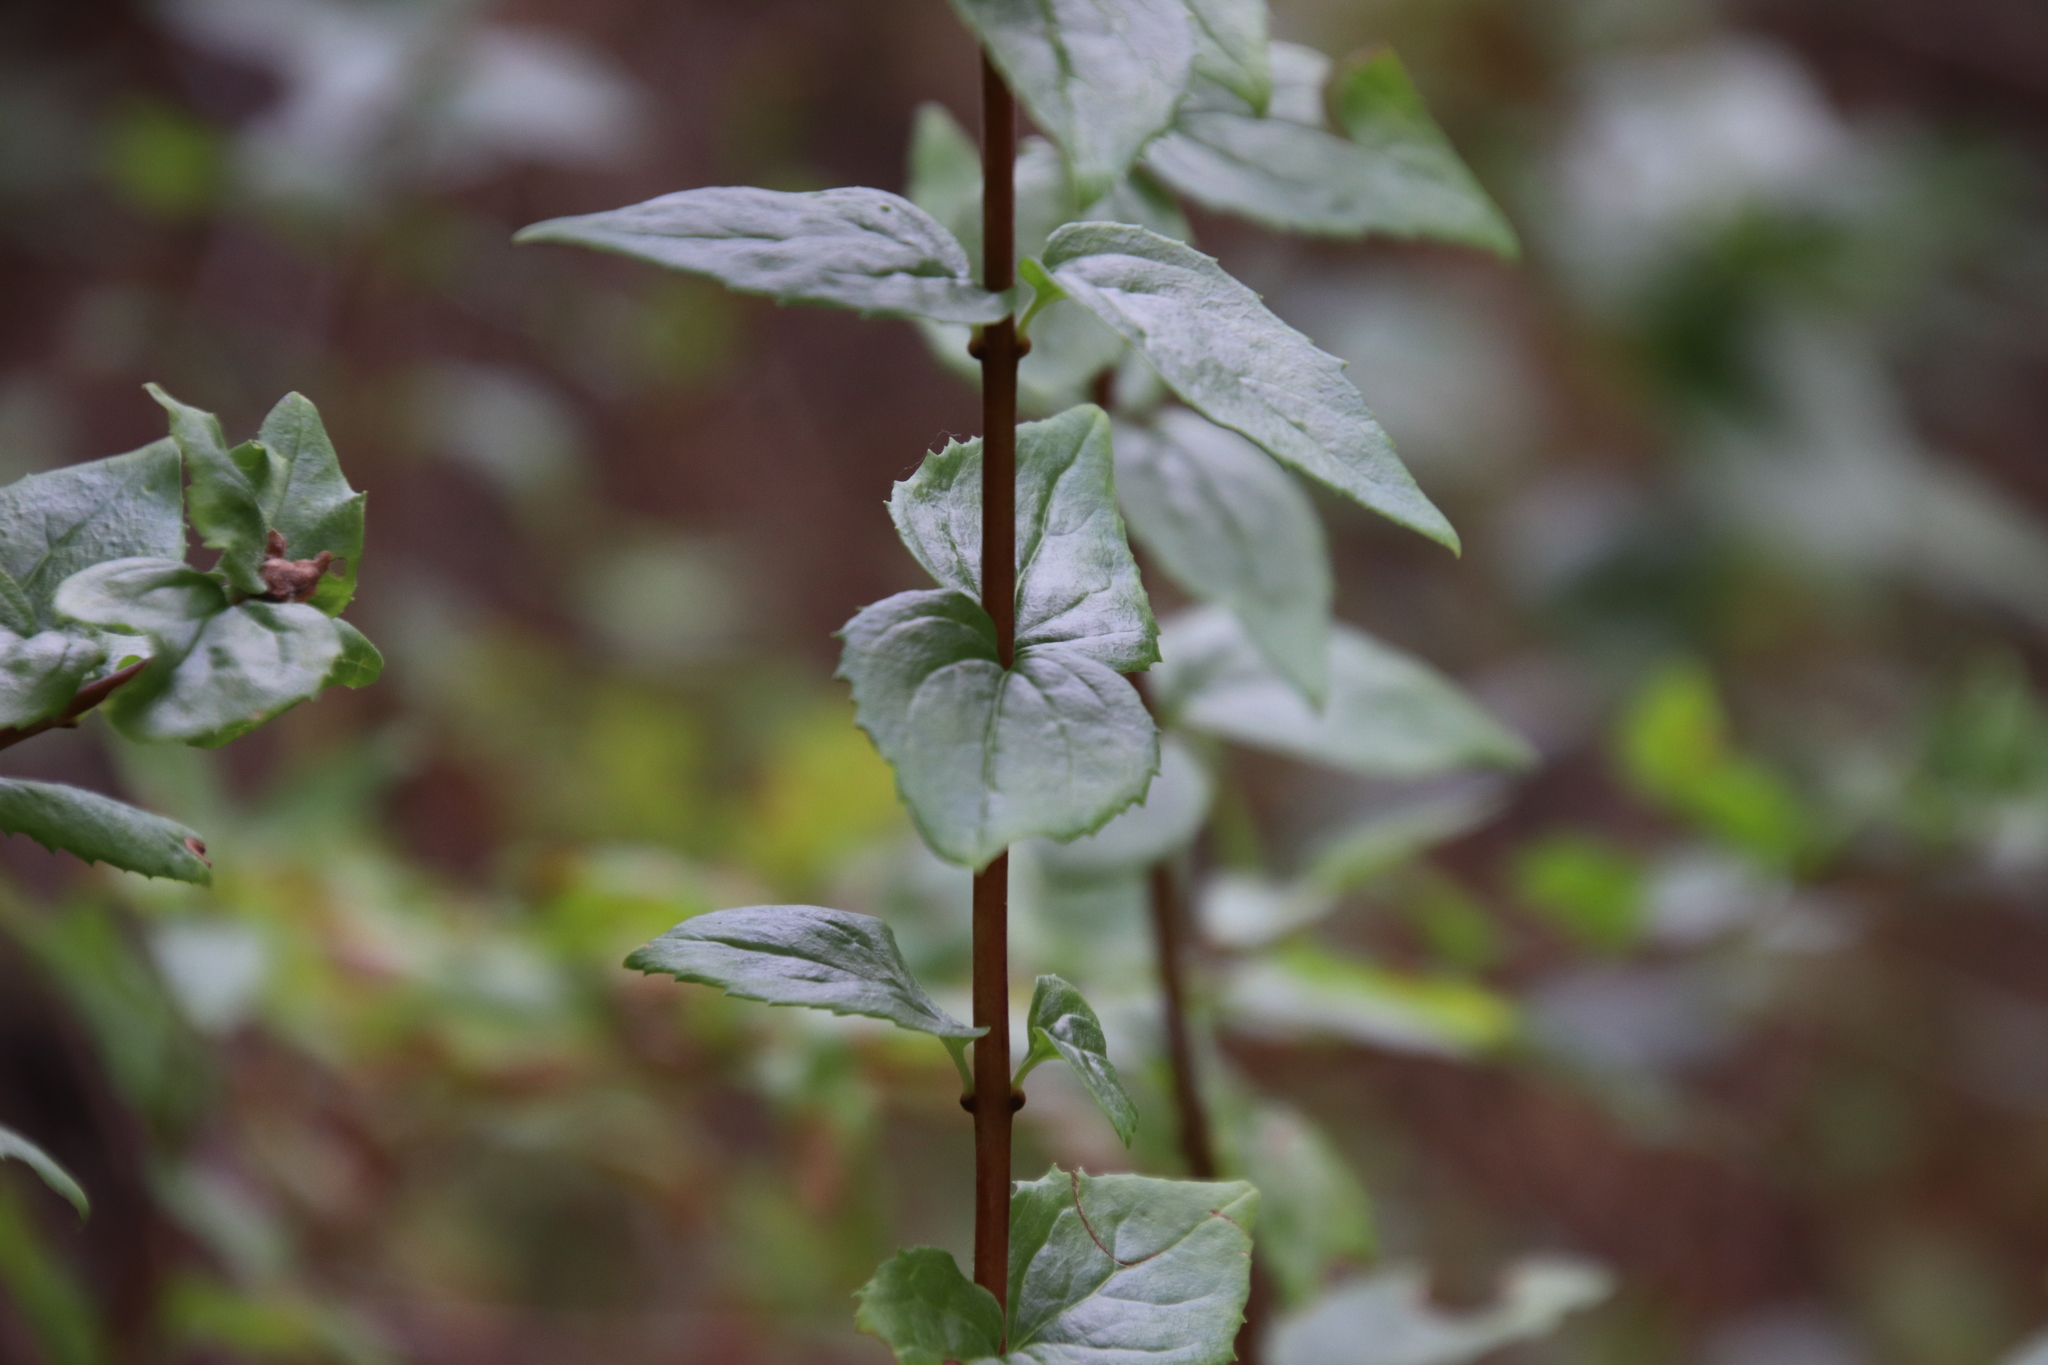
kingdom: Plantae
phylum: Tracheophyta
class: Magnoliopsida
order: Lamiales
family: Plantaginaceae
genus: Keckiella
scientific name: Keckiella cordifolia
